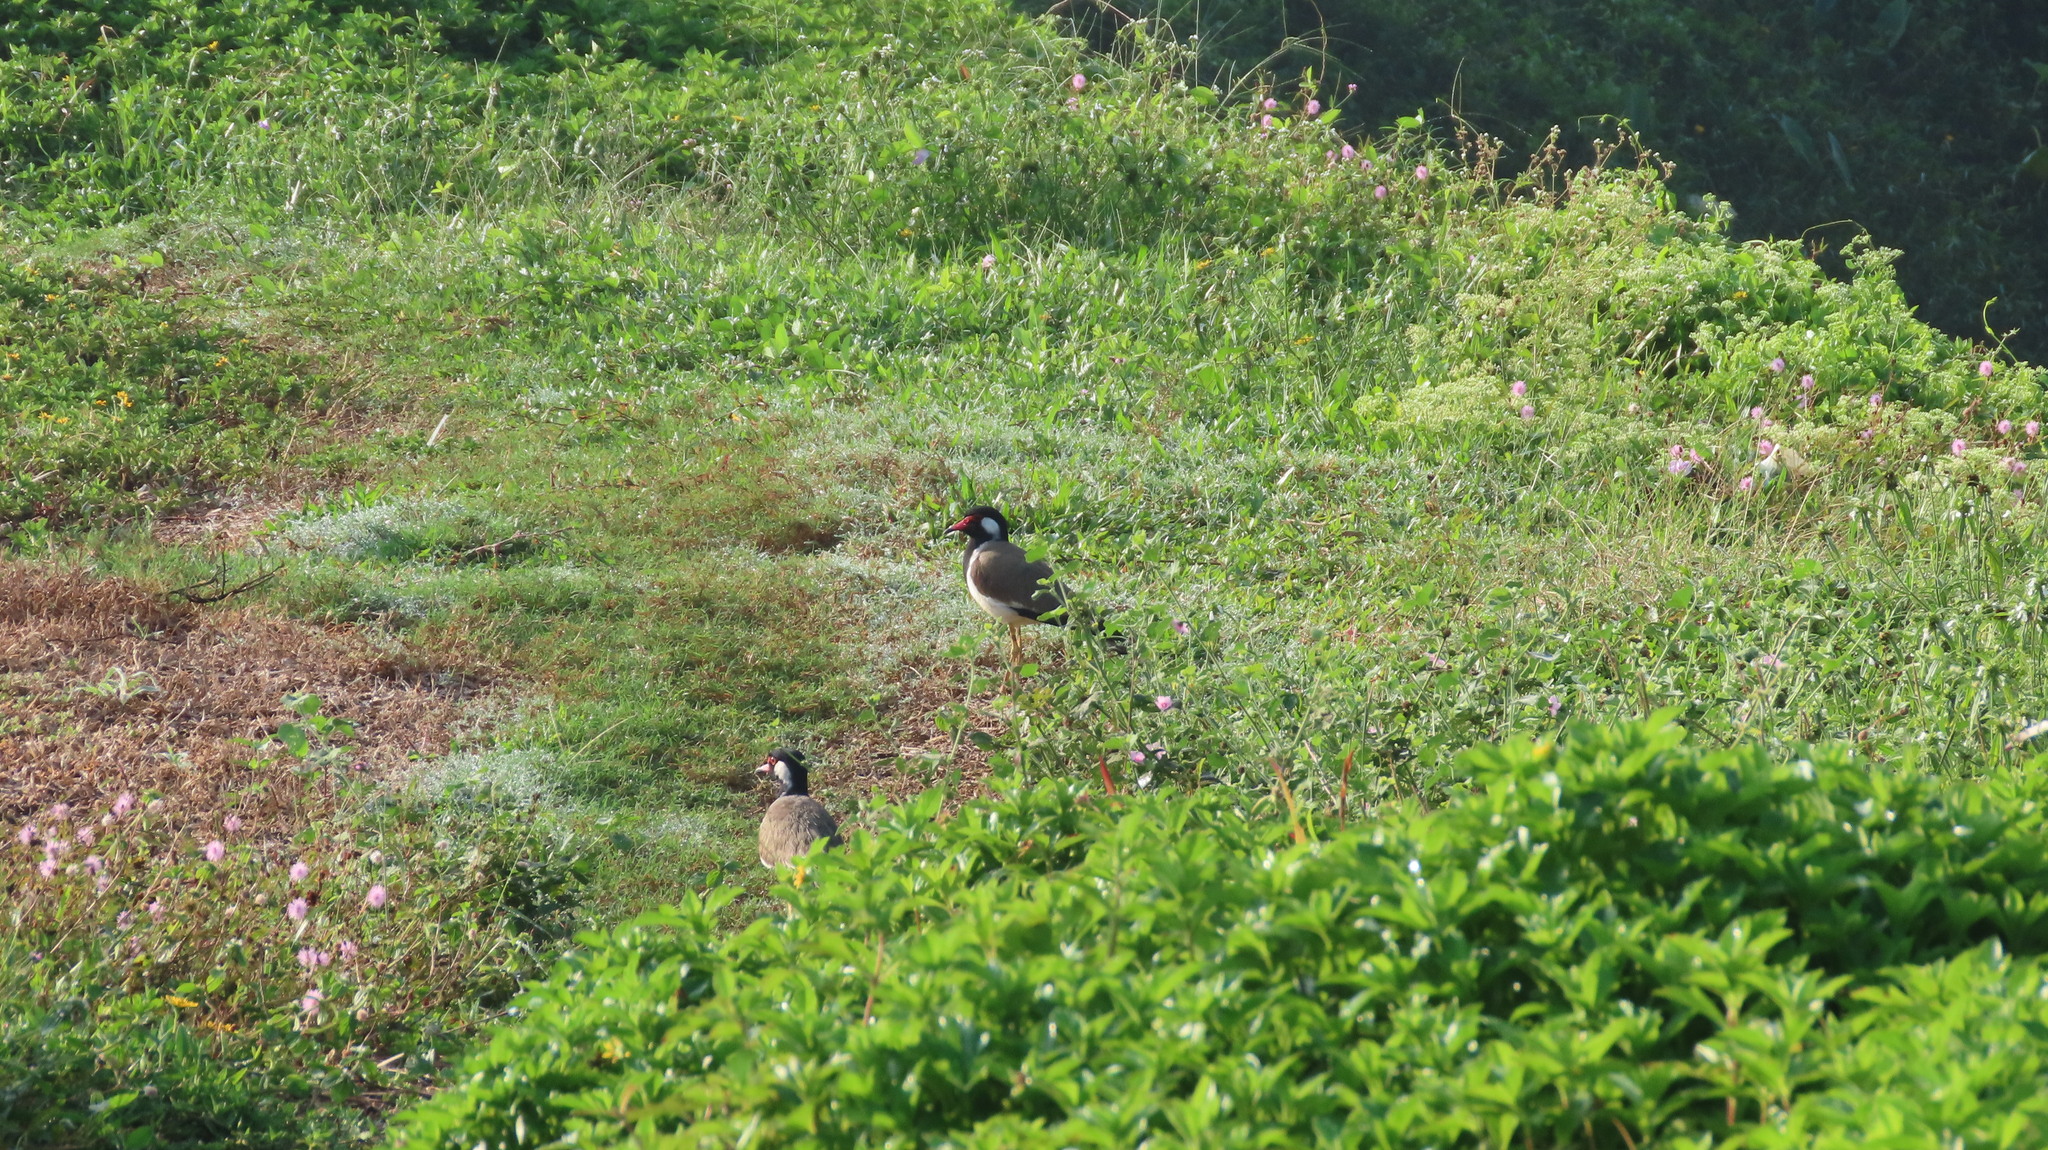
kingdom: Animalia
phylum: Chordata
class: Aves
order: Charadriiformes
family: Charadriidae
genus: Vanellus
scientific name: Vanellus indicus
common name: Red-wattled lapwing
